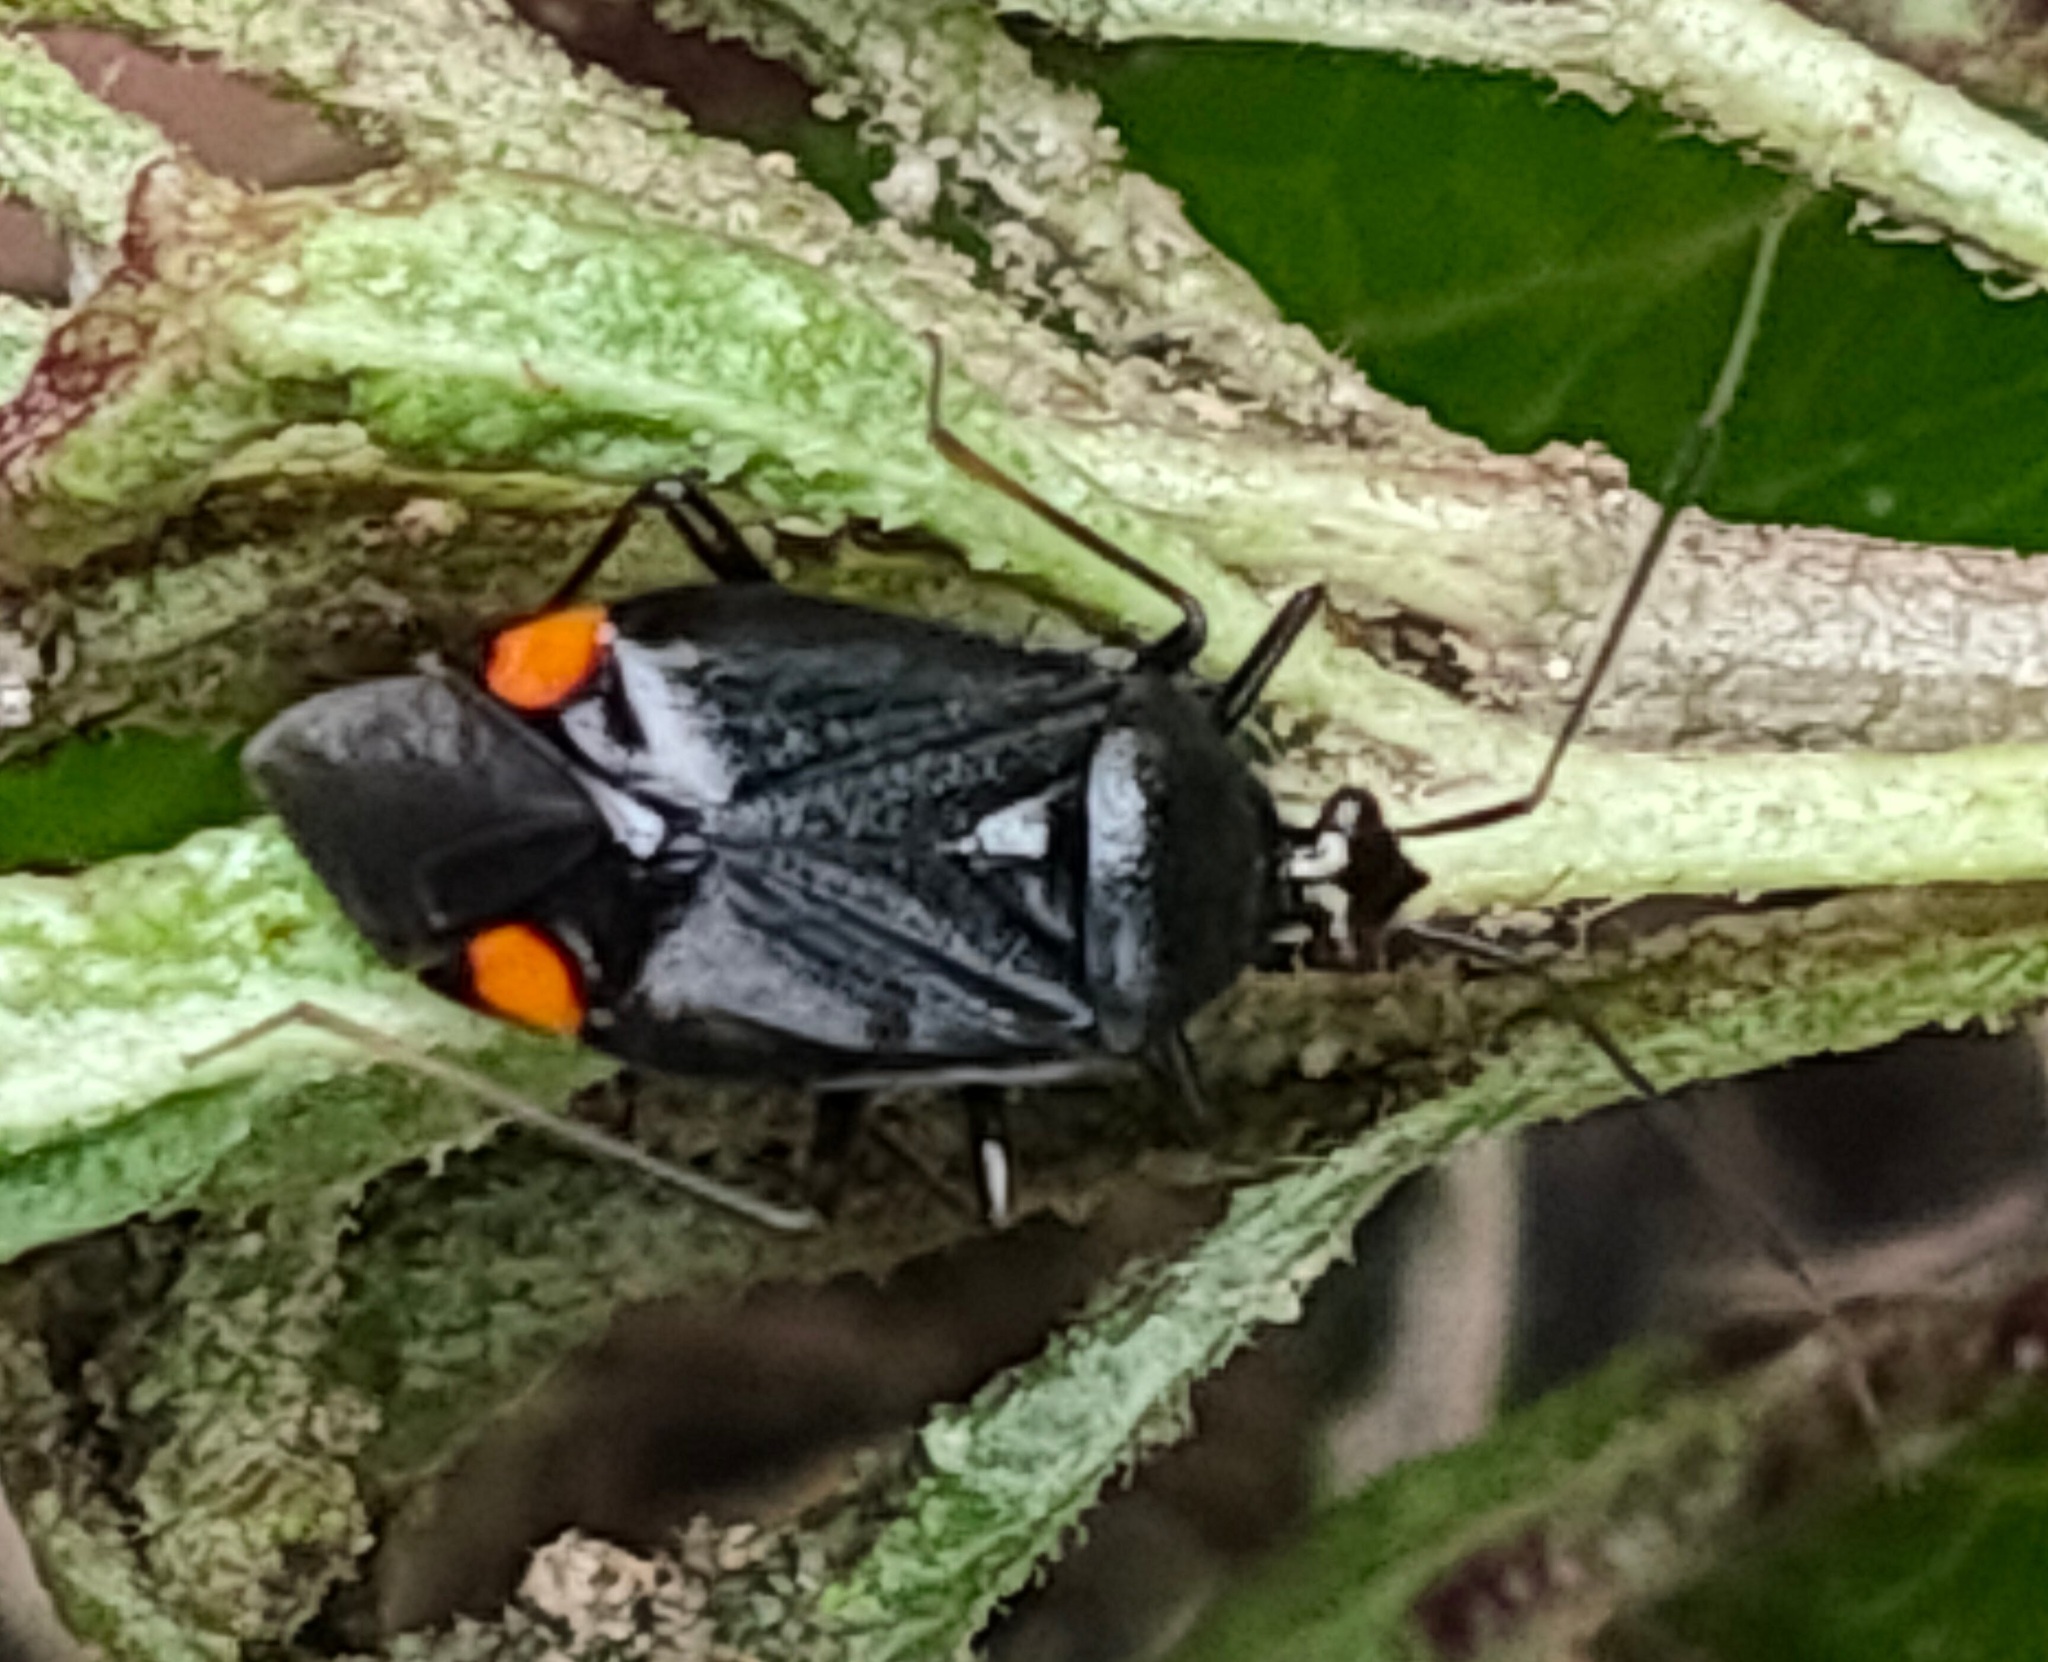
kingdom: Animalia
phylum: Arthropoda
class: Insecta
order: Hemiptera
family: Miridae
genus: Deraeocoris
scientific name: Deraeocoris ater
